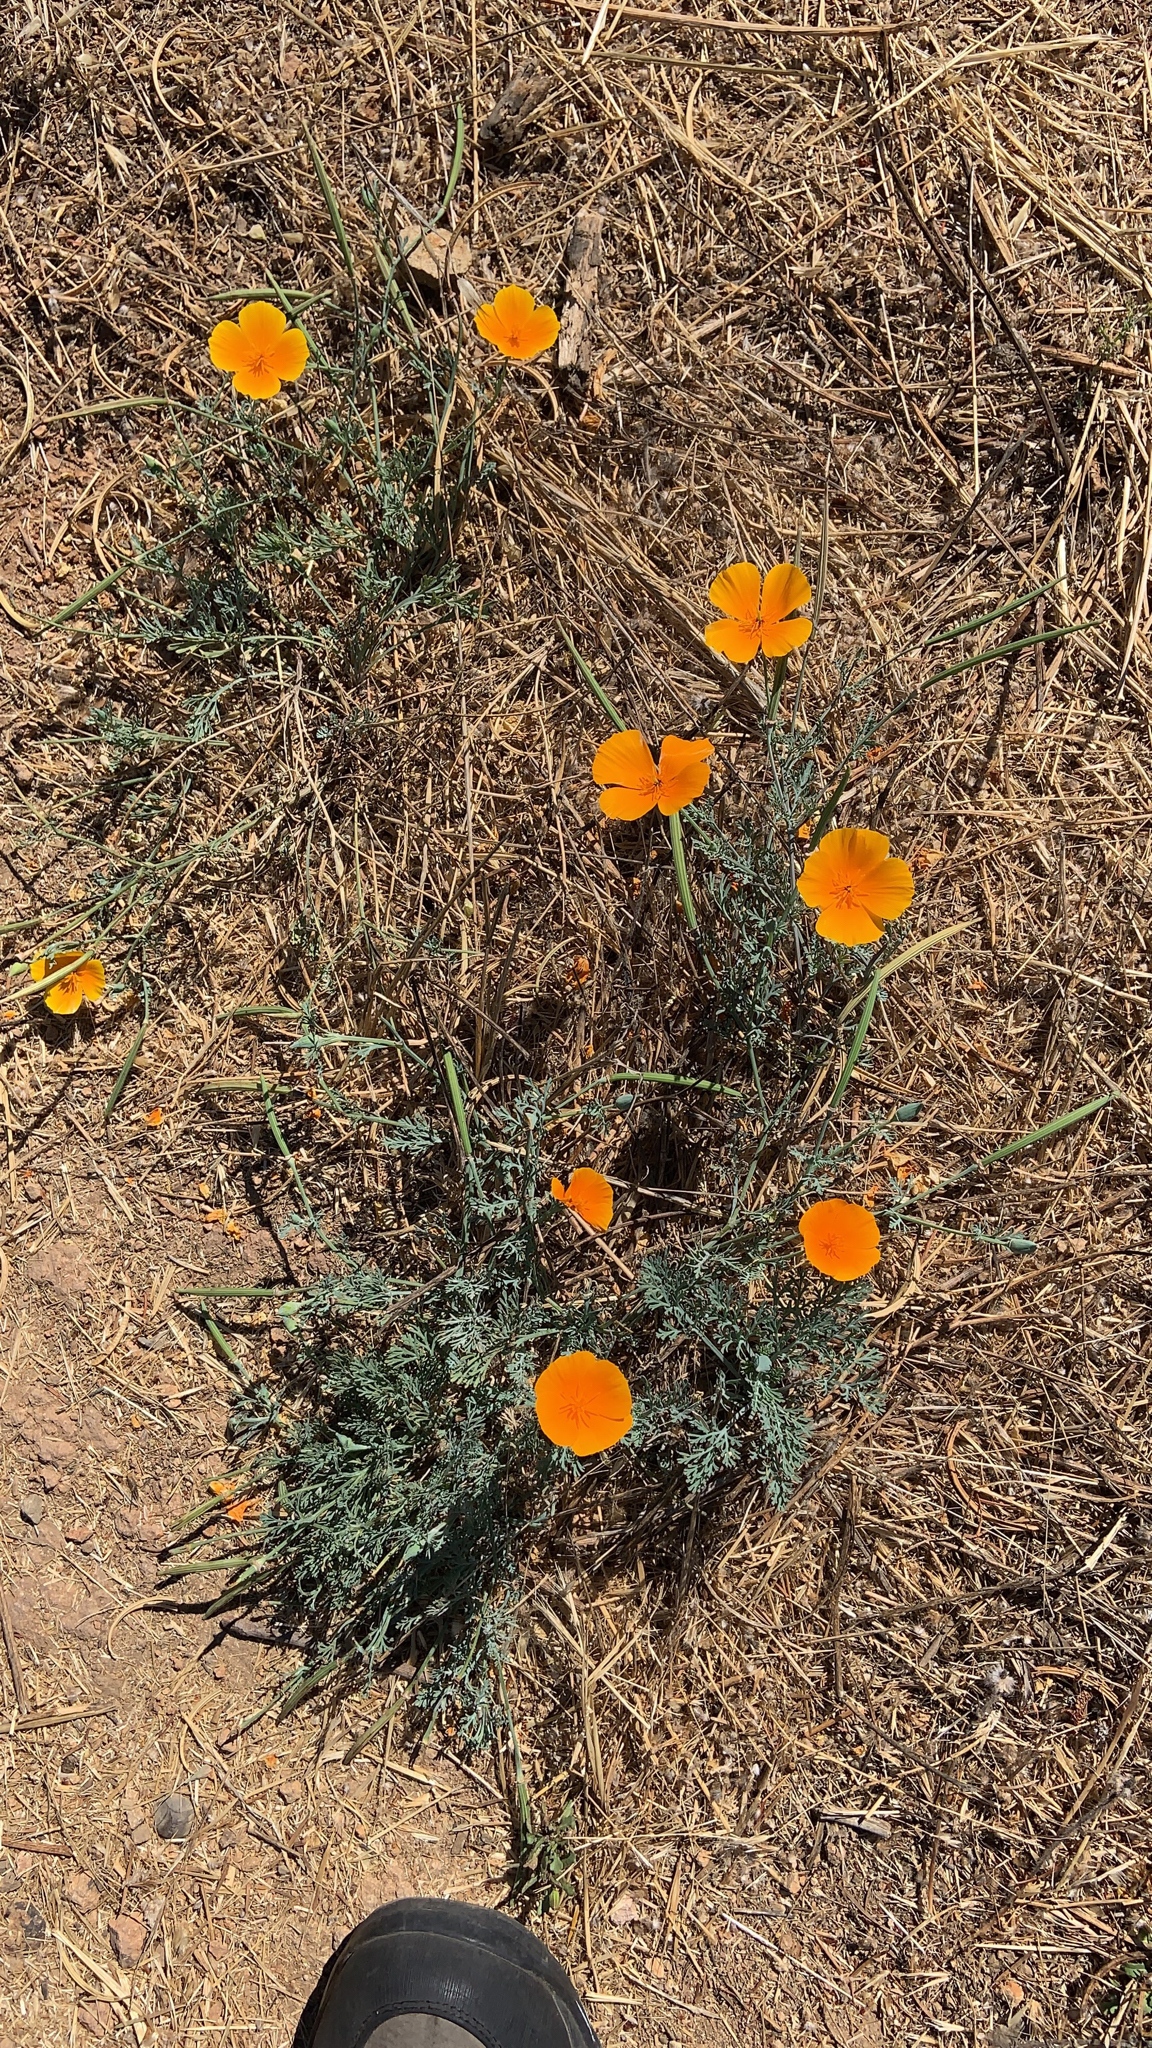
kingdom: Plantae
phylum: Tracheophyta
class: Magnoliopsida
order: Ranunculales
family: Papaveraceae
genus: Eschscholzia
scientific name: Eschscholzia californica
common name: California poppy
